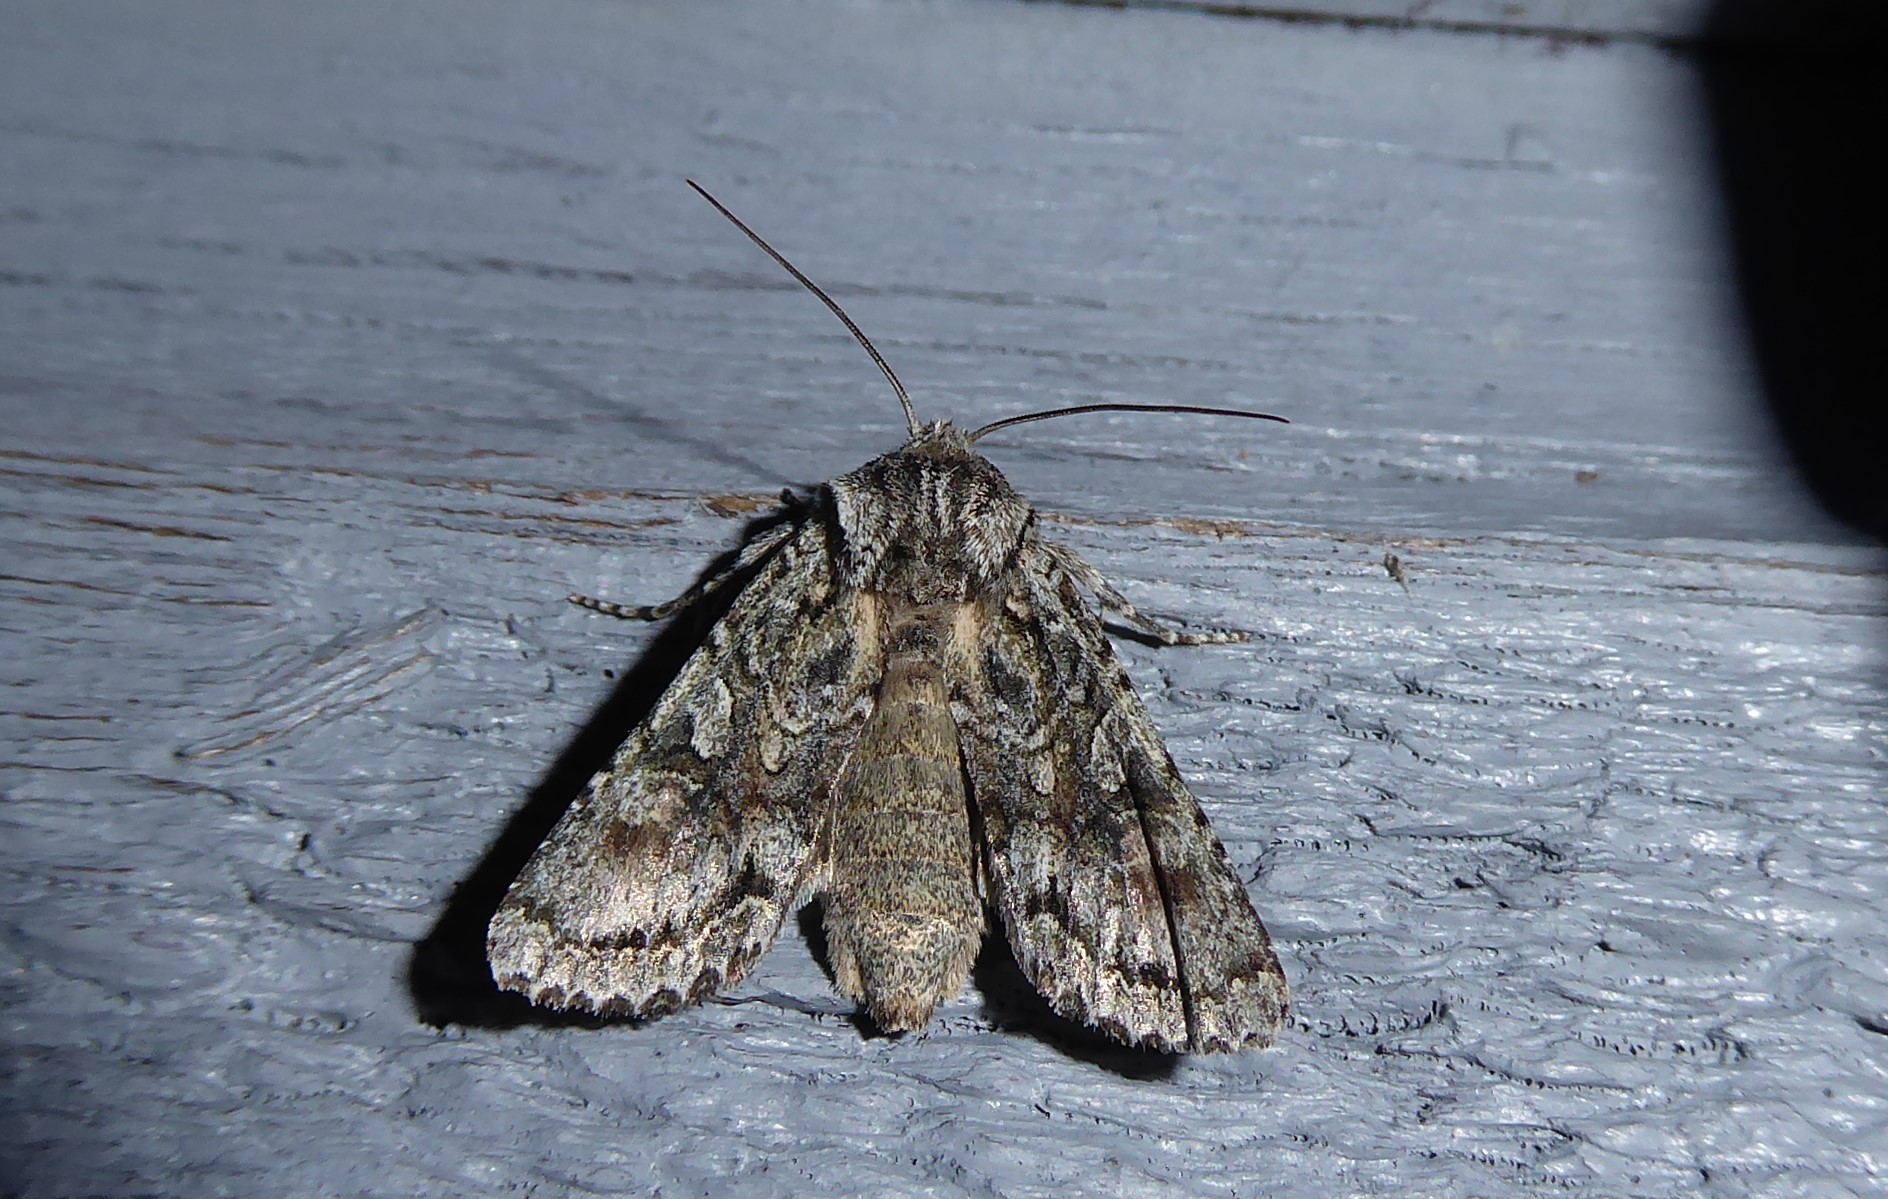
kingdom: Animalia
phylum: Arthropoda
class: Insecta
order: Lepidoptera
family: Noctuidae
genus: Ichneutica
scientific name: Ichneutica mutans
